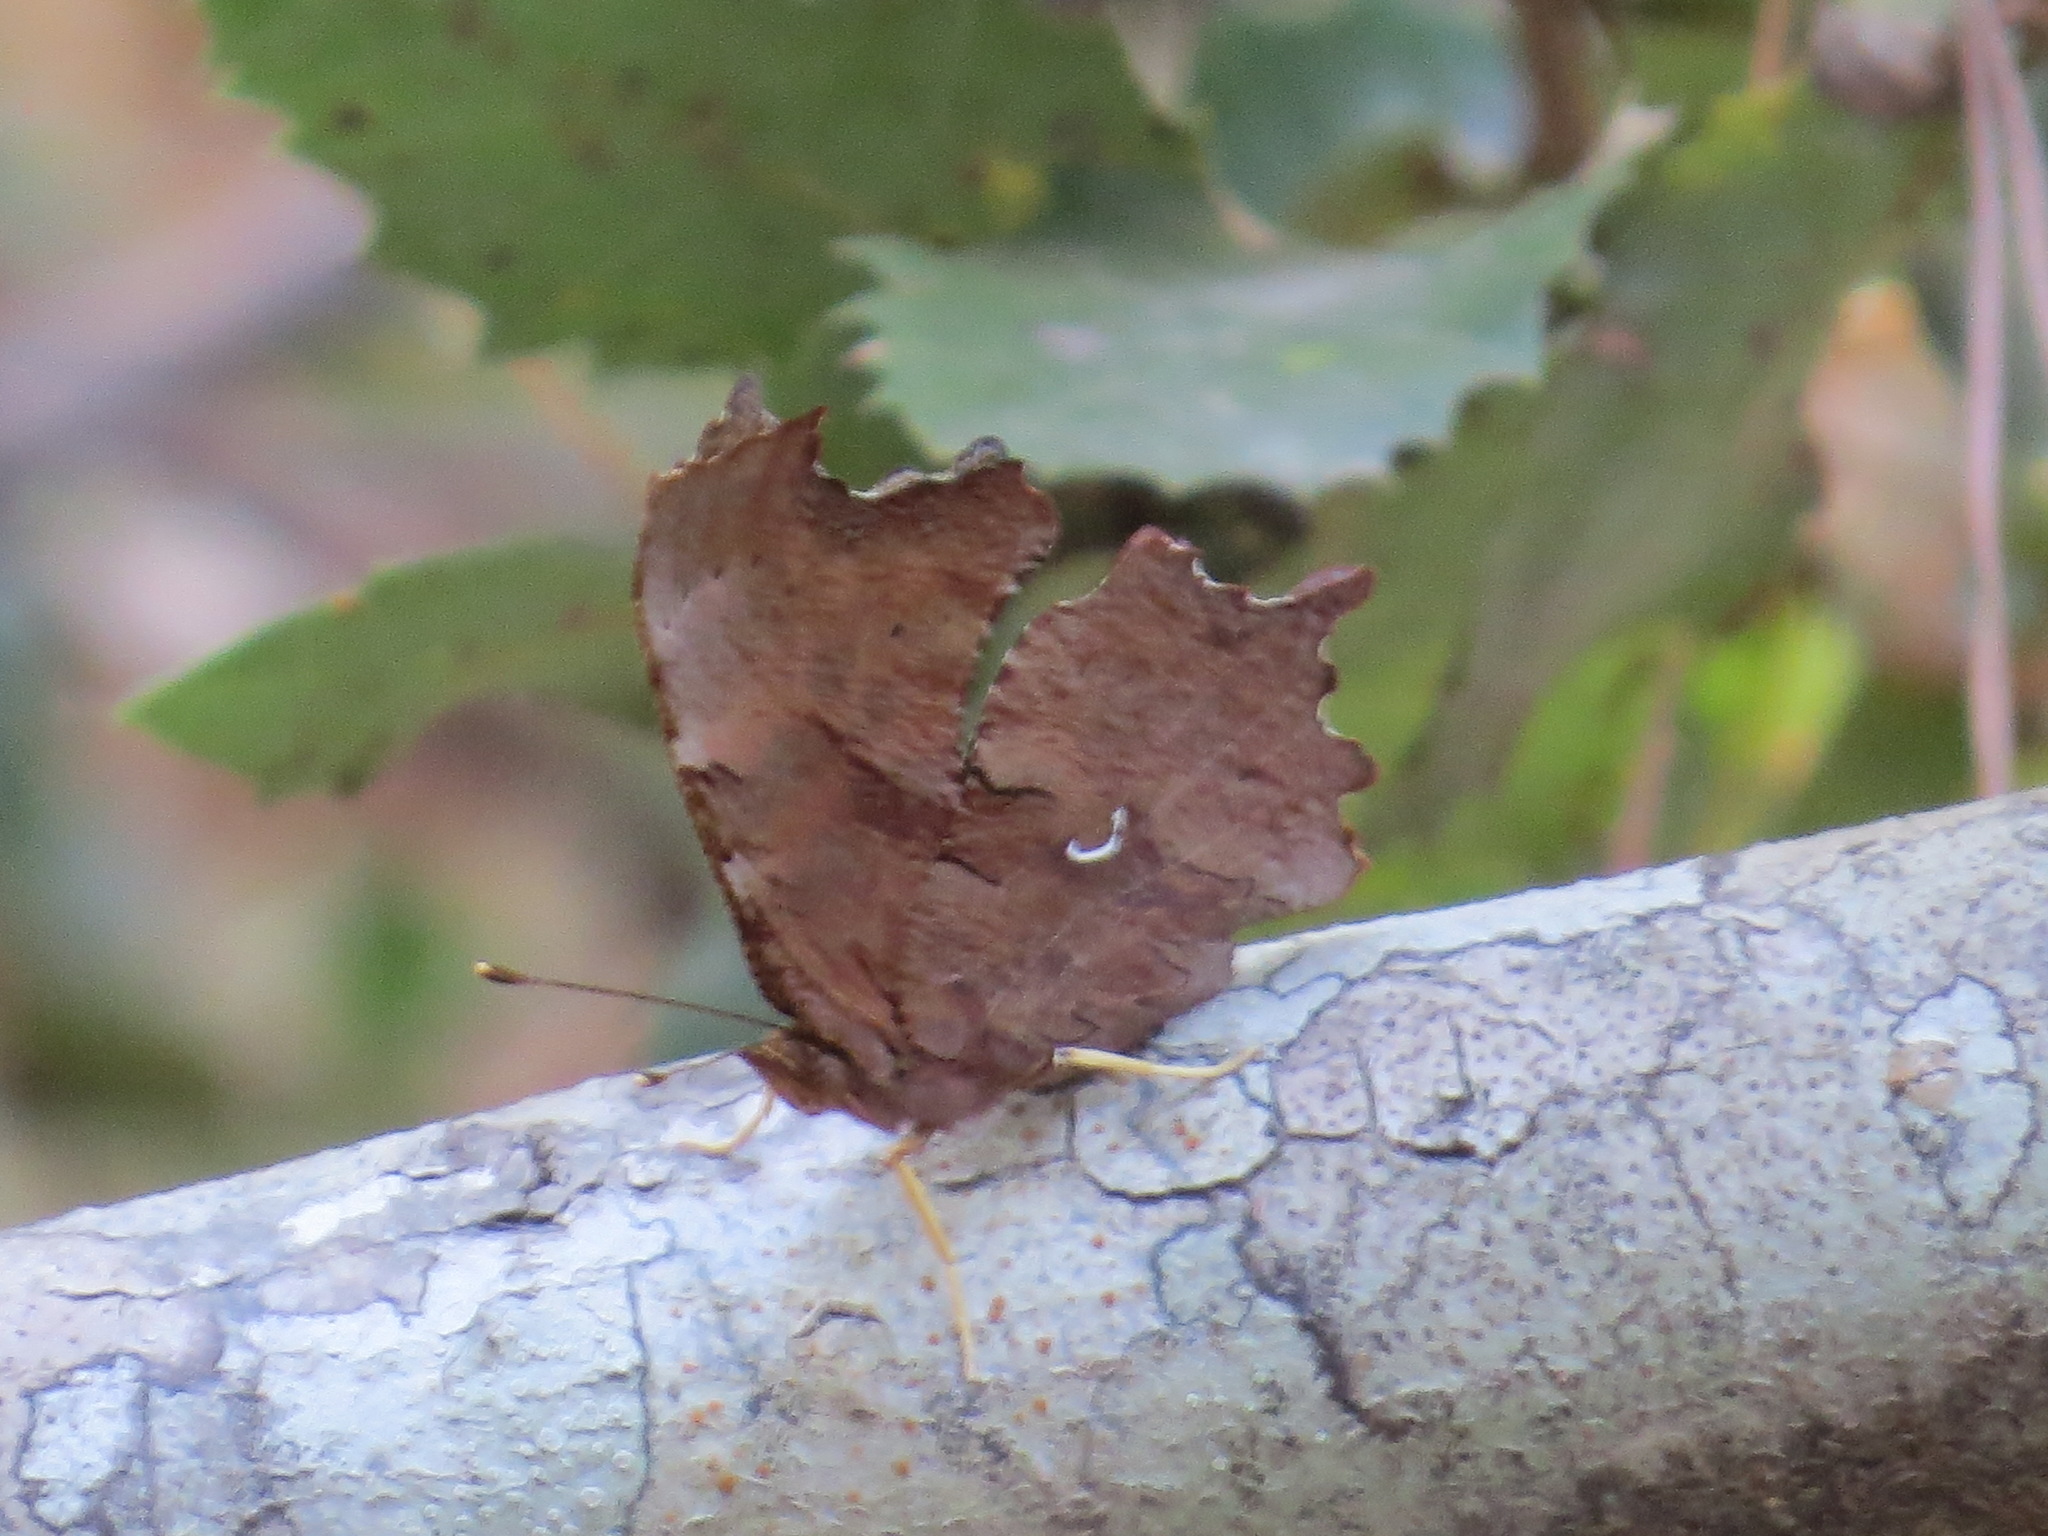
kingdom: Animalia
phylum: Arthropoda
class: Insecta
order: Lepidoptera
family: Nymphalidae
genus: Polygonia
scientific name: Polygonia satyrus
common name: Satyr angle wing
